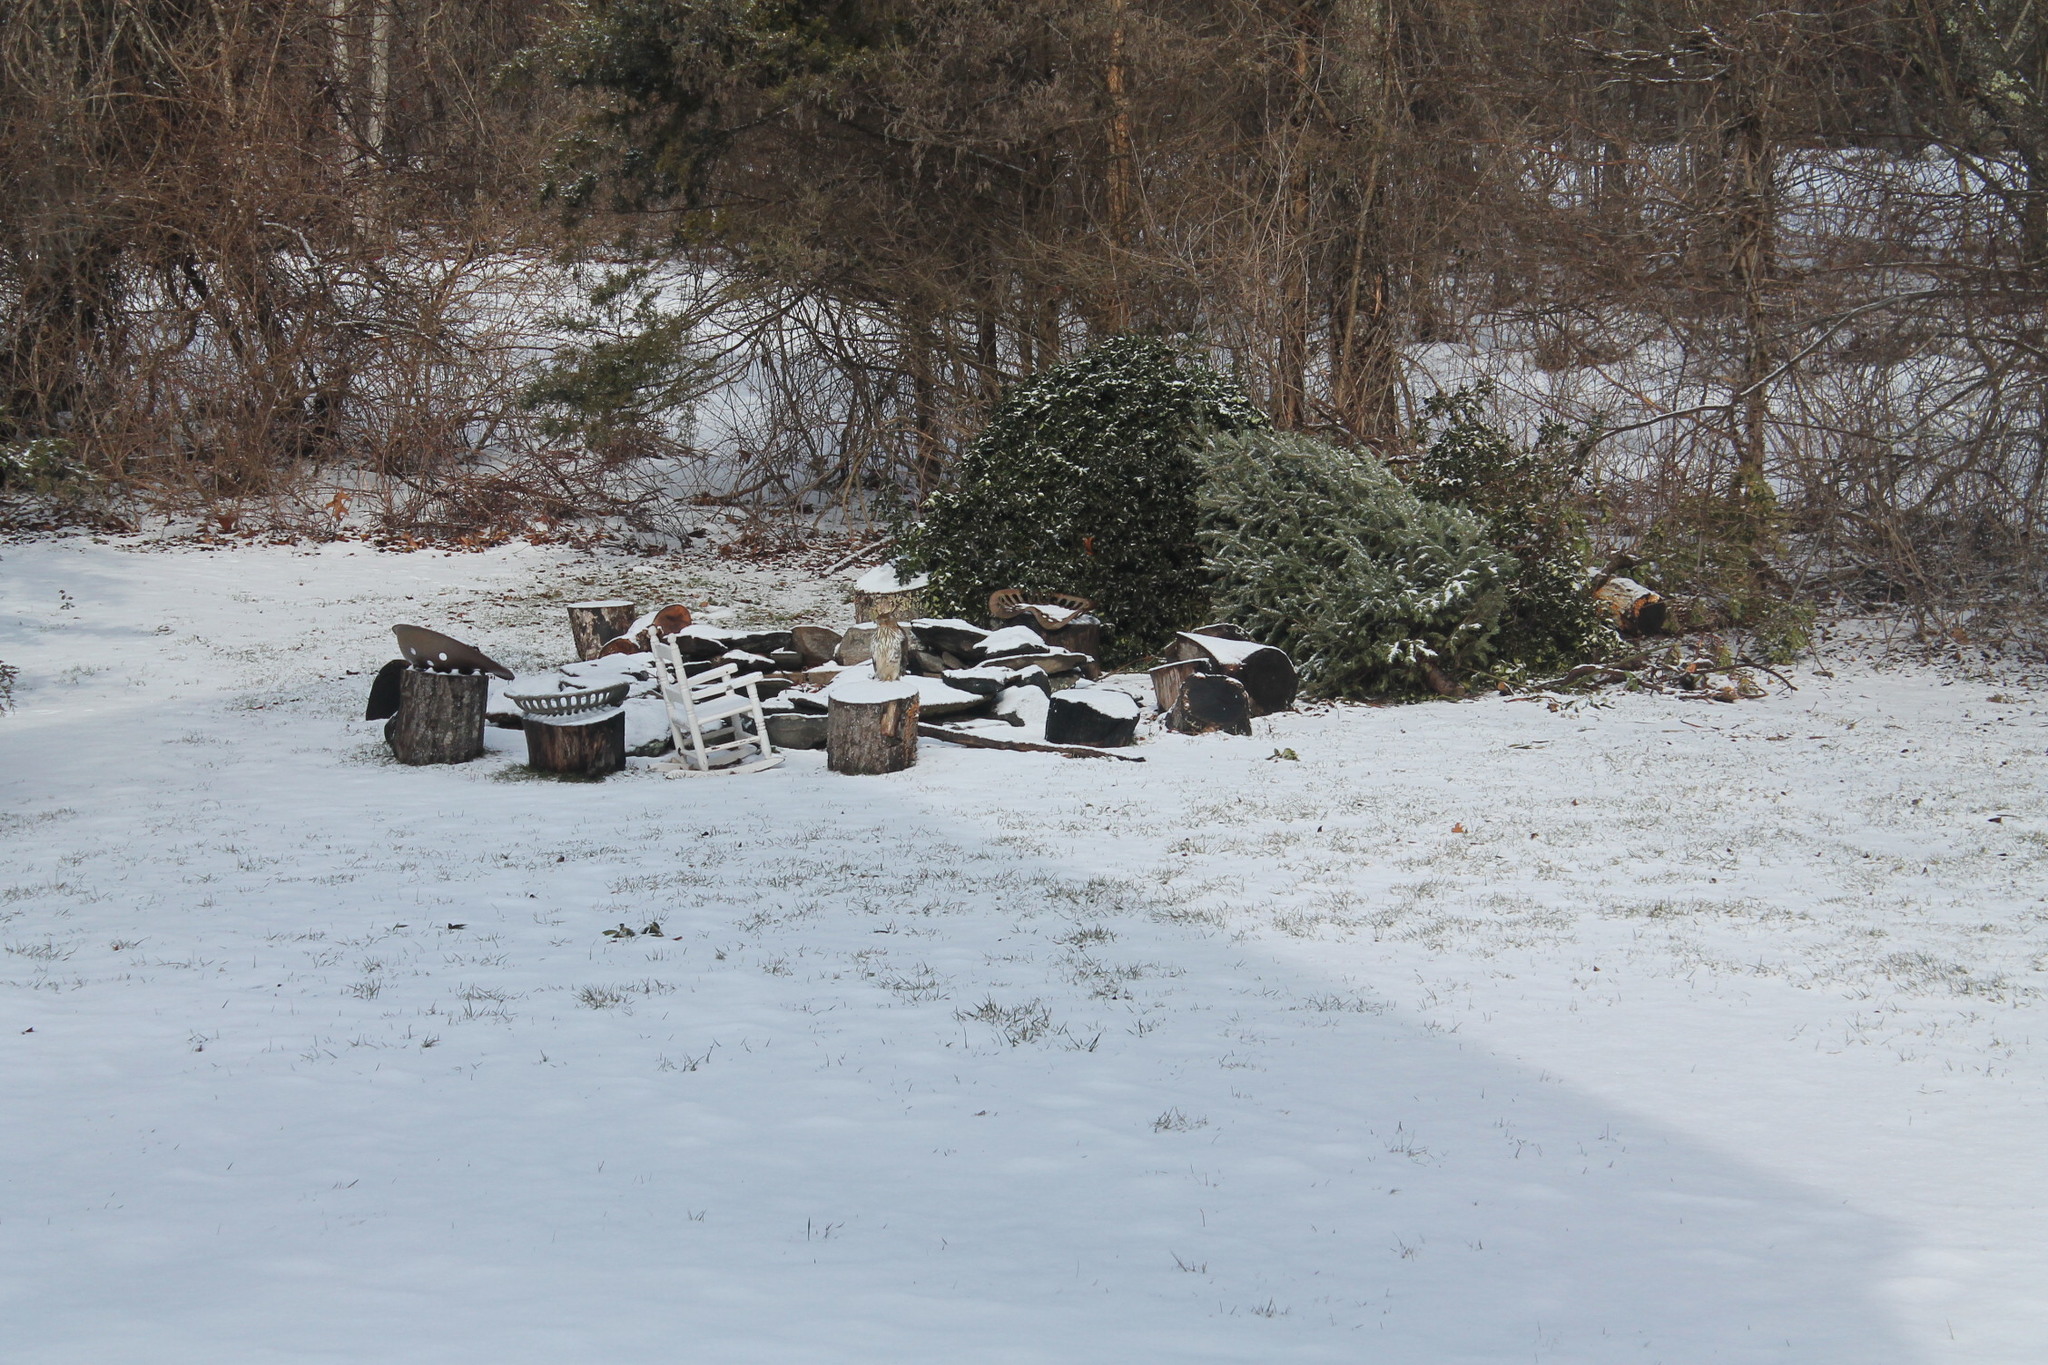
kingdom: Animalia
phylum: Chordata
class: Aves
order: Accipitriformes
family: Accipitridae
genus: Accipiter
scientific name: Accipiter cooperii
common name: Cooper's hawk
